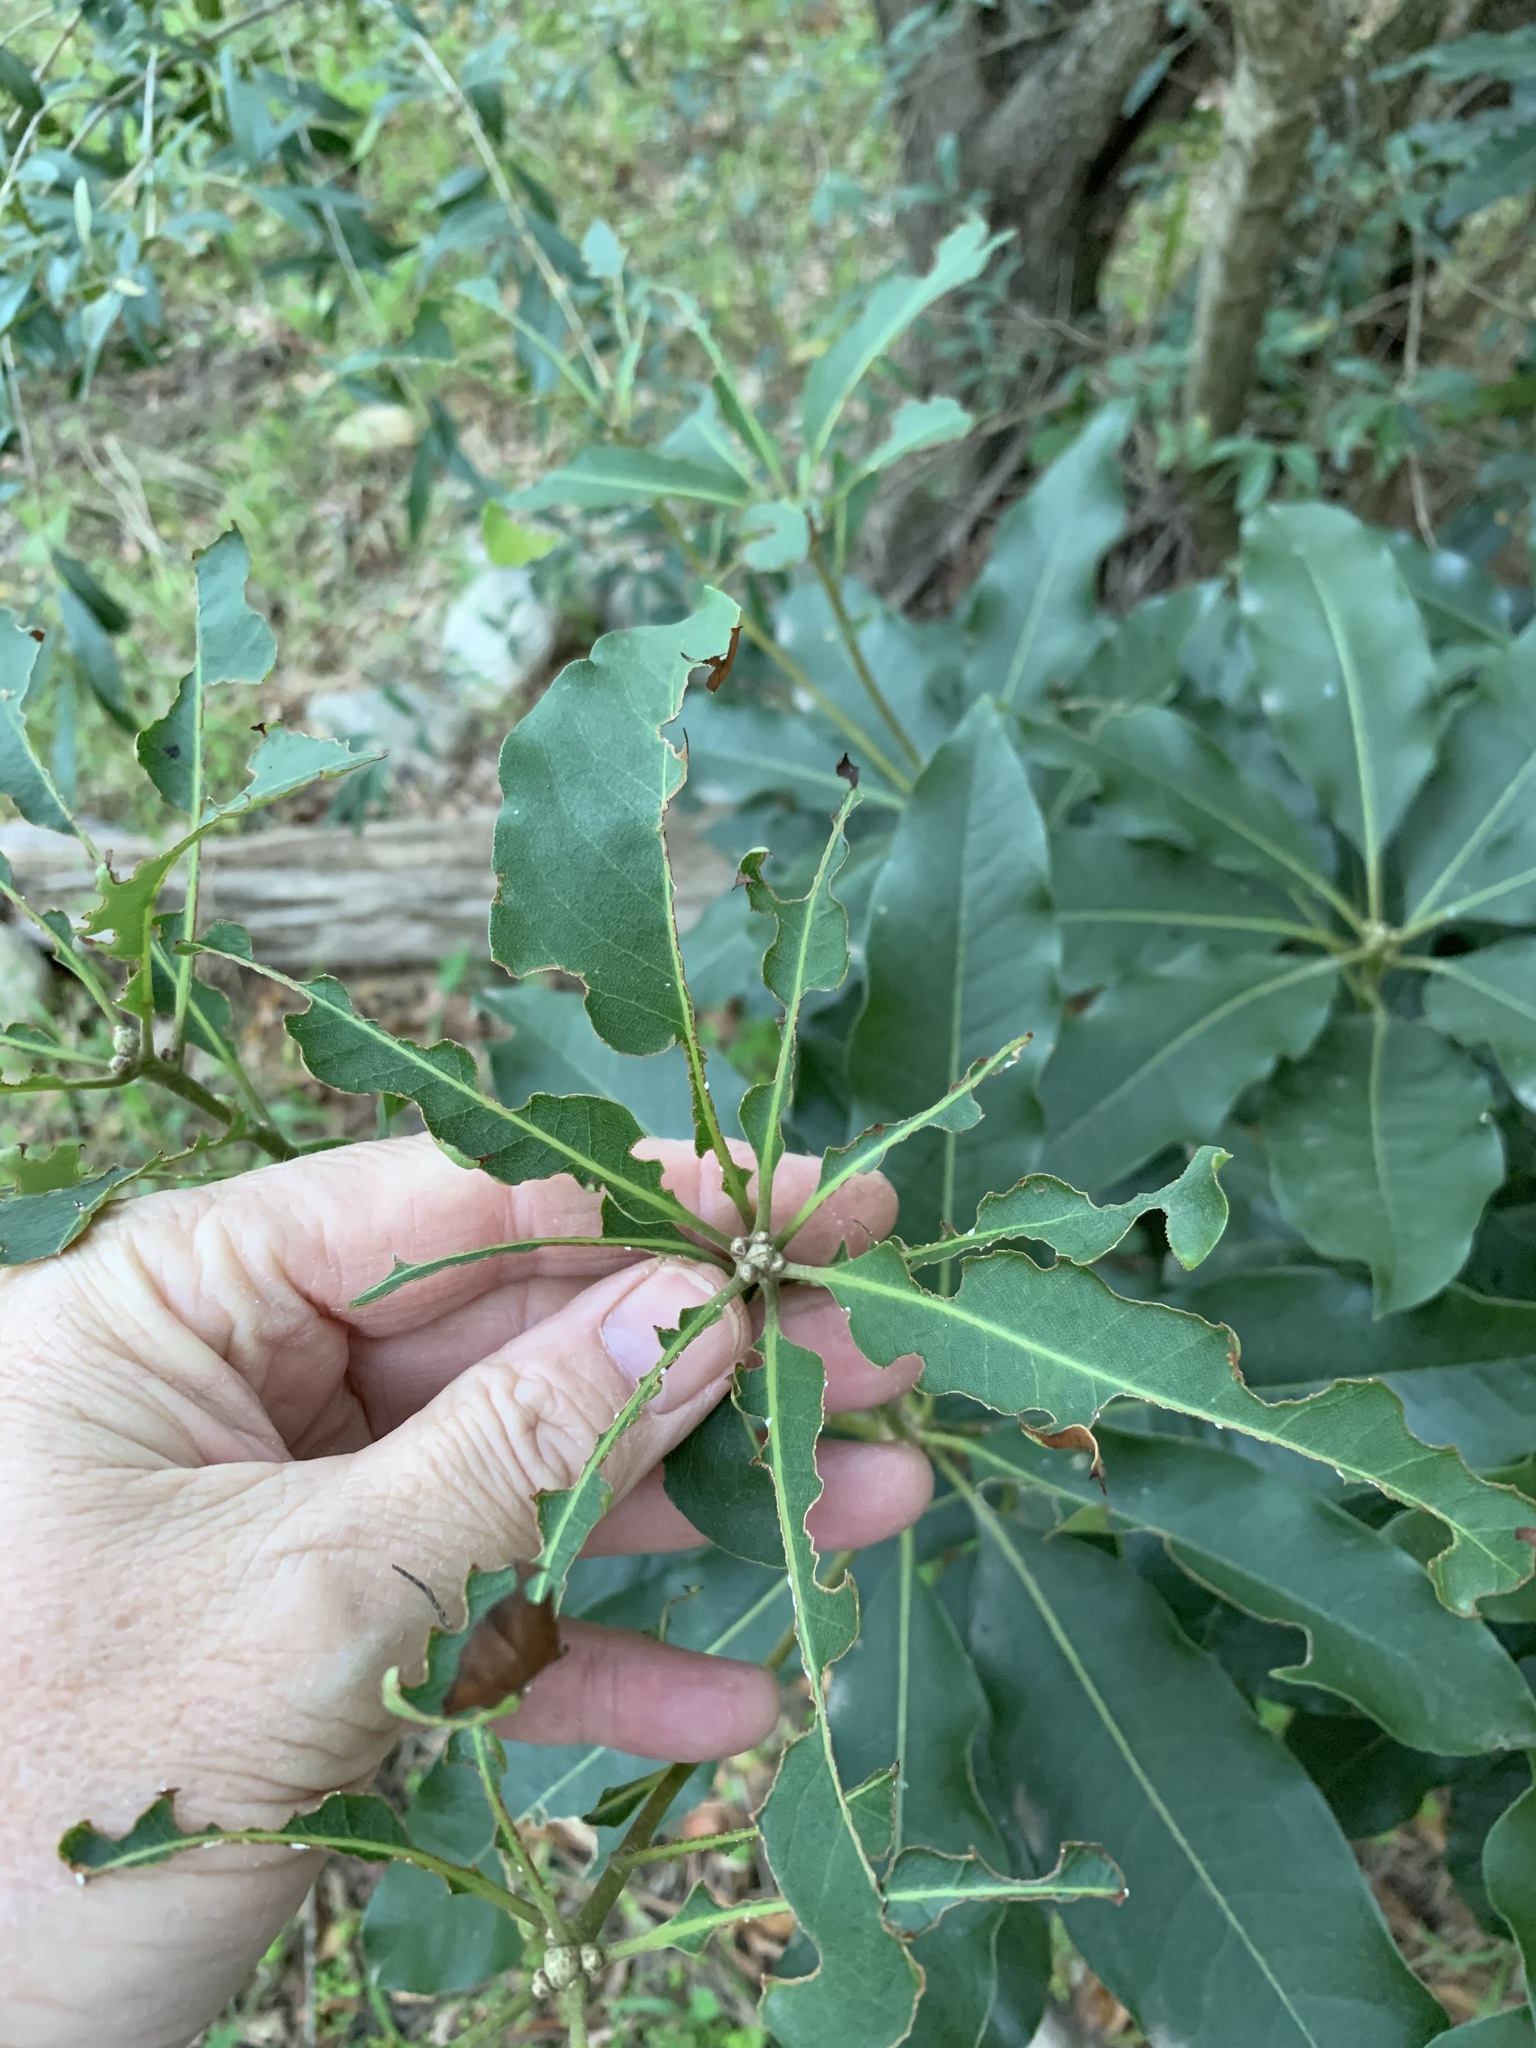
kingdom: Plantae
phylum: Tracheophyta
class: Magnoliopsida
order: Apiales
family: Pittosporaceae
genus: Pittosporum
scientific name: Pittosporum undulatum
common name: Australian cheesewood
